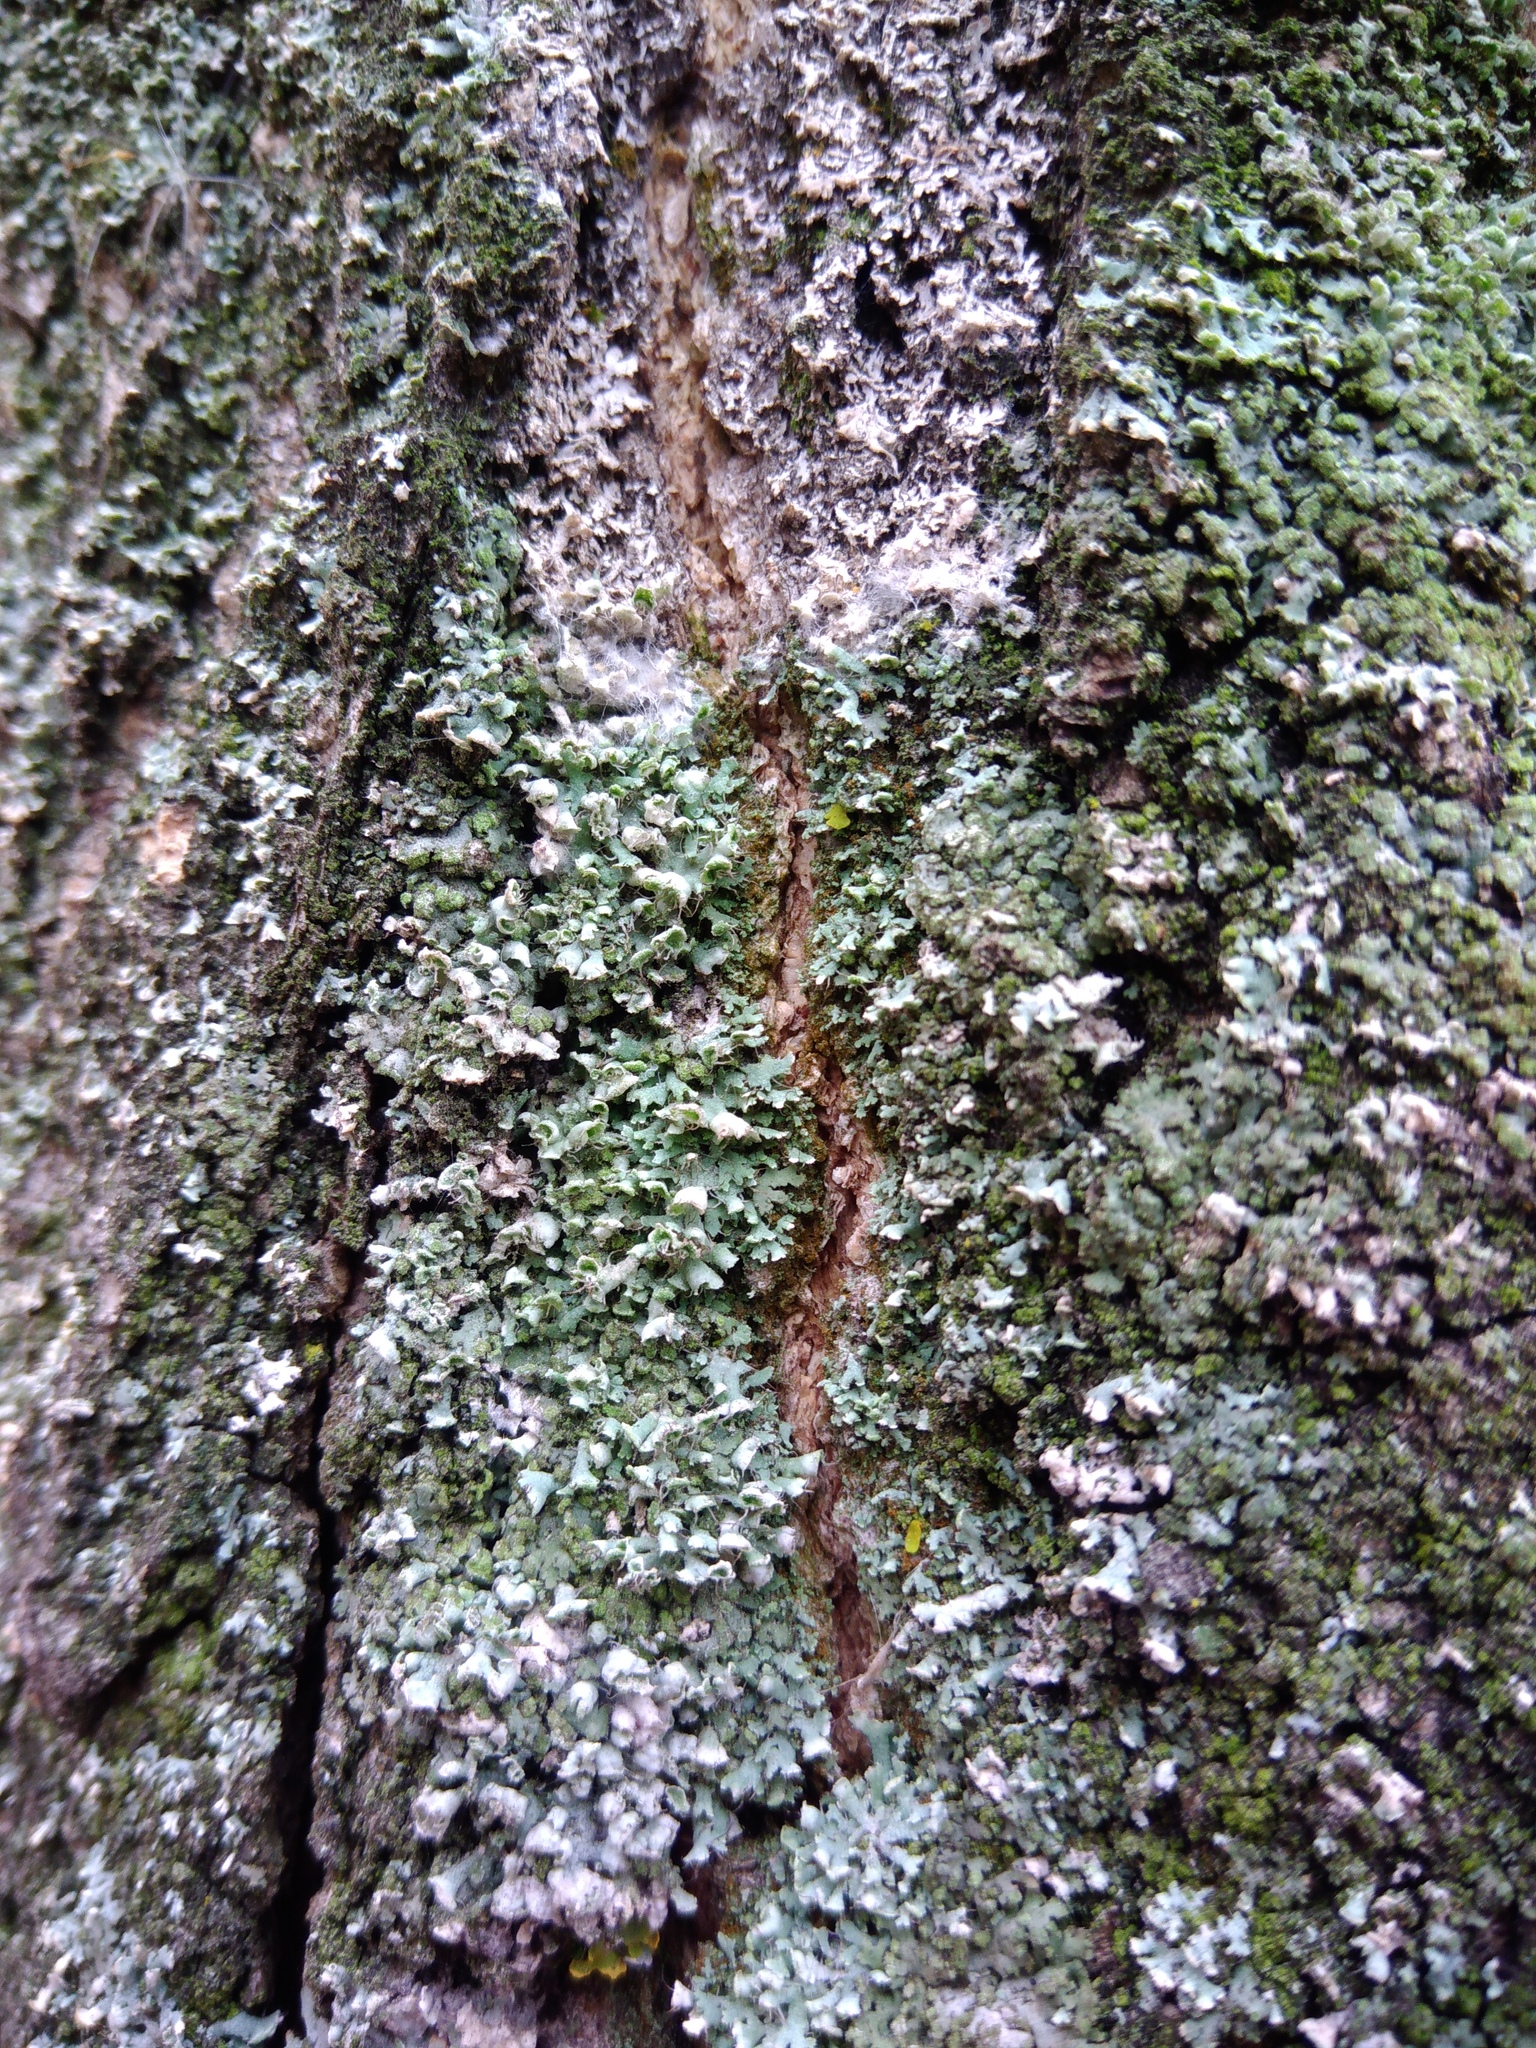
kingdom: Fungi
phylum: Ascomycota
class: Lecanoromycetes
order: Caliciales
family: Physciaceae
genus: Physcia
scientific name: Physcia adscendens
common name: Hooded rosette lichen
